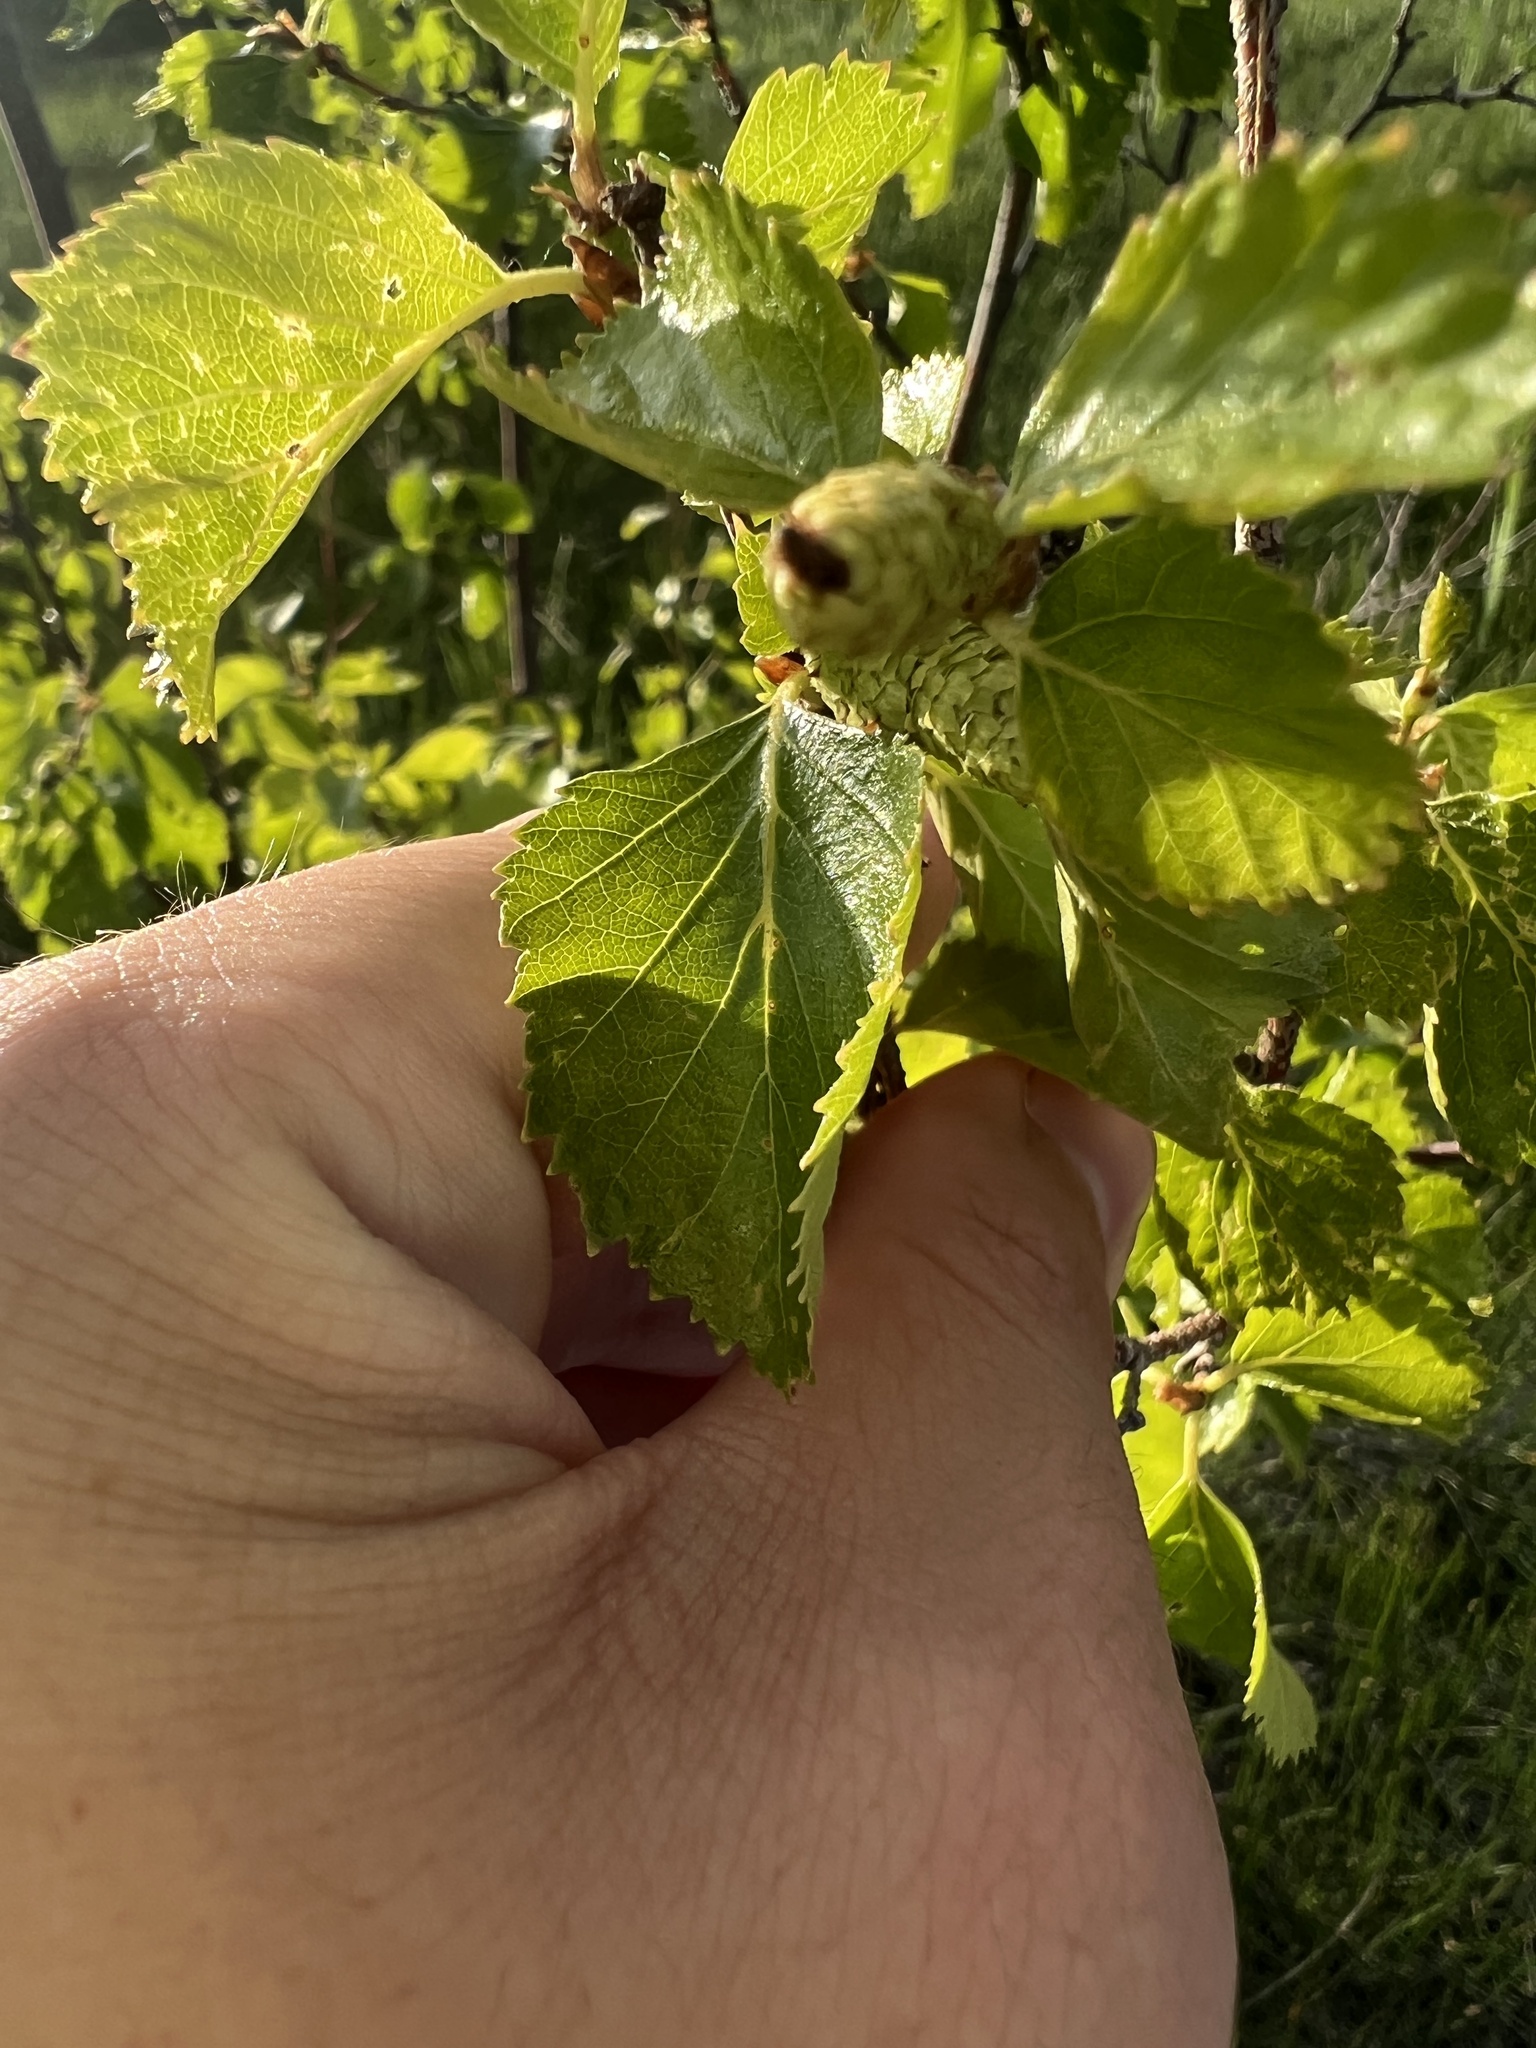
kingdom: Plantae
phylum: Tracheophyta
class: Magnoliopsida
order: Fagales
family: Betulaceae
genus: Betula
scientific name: Betula occidentalis
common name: River birch
